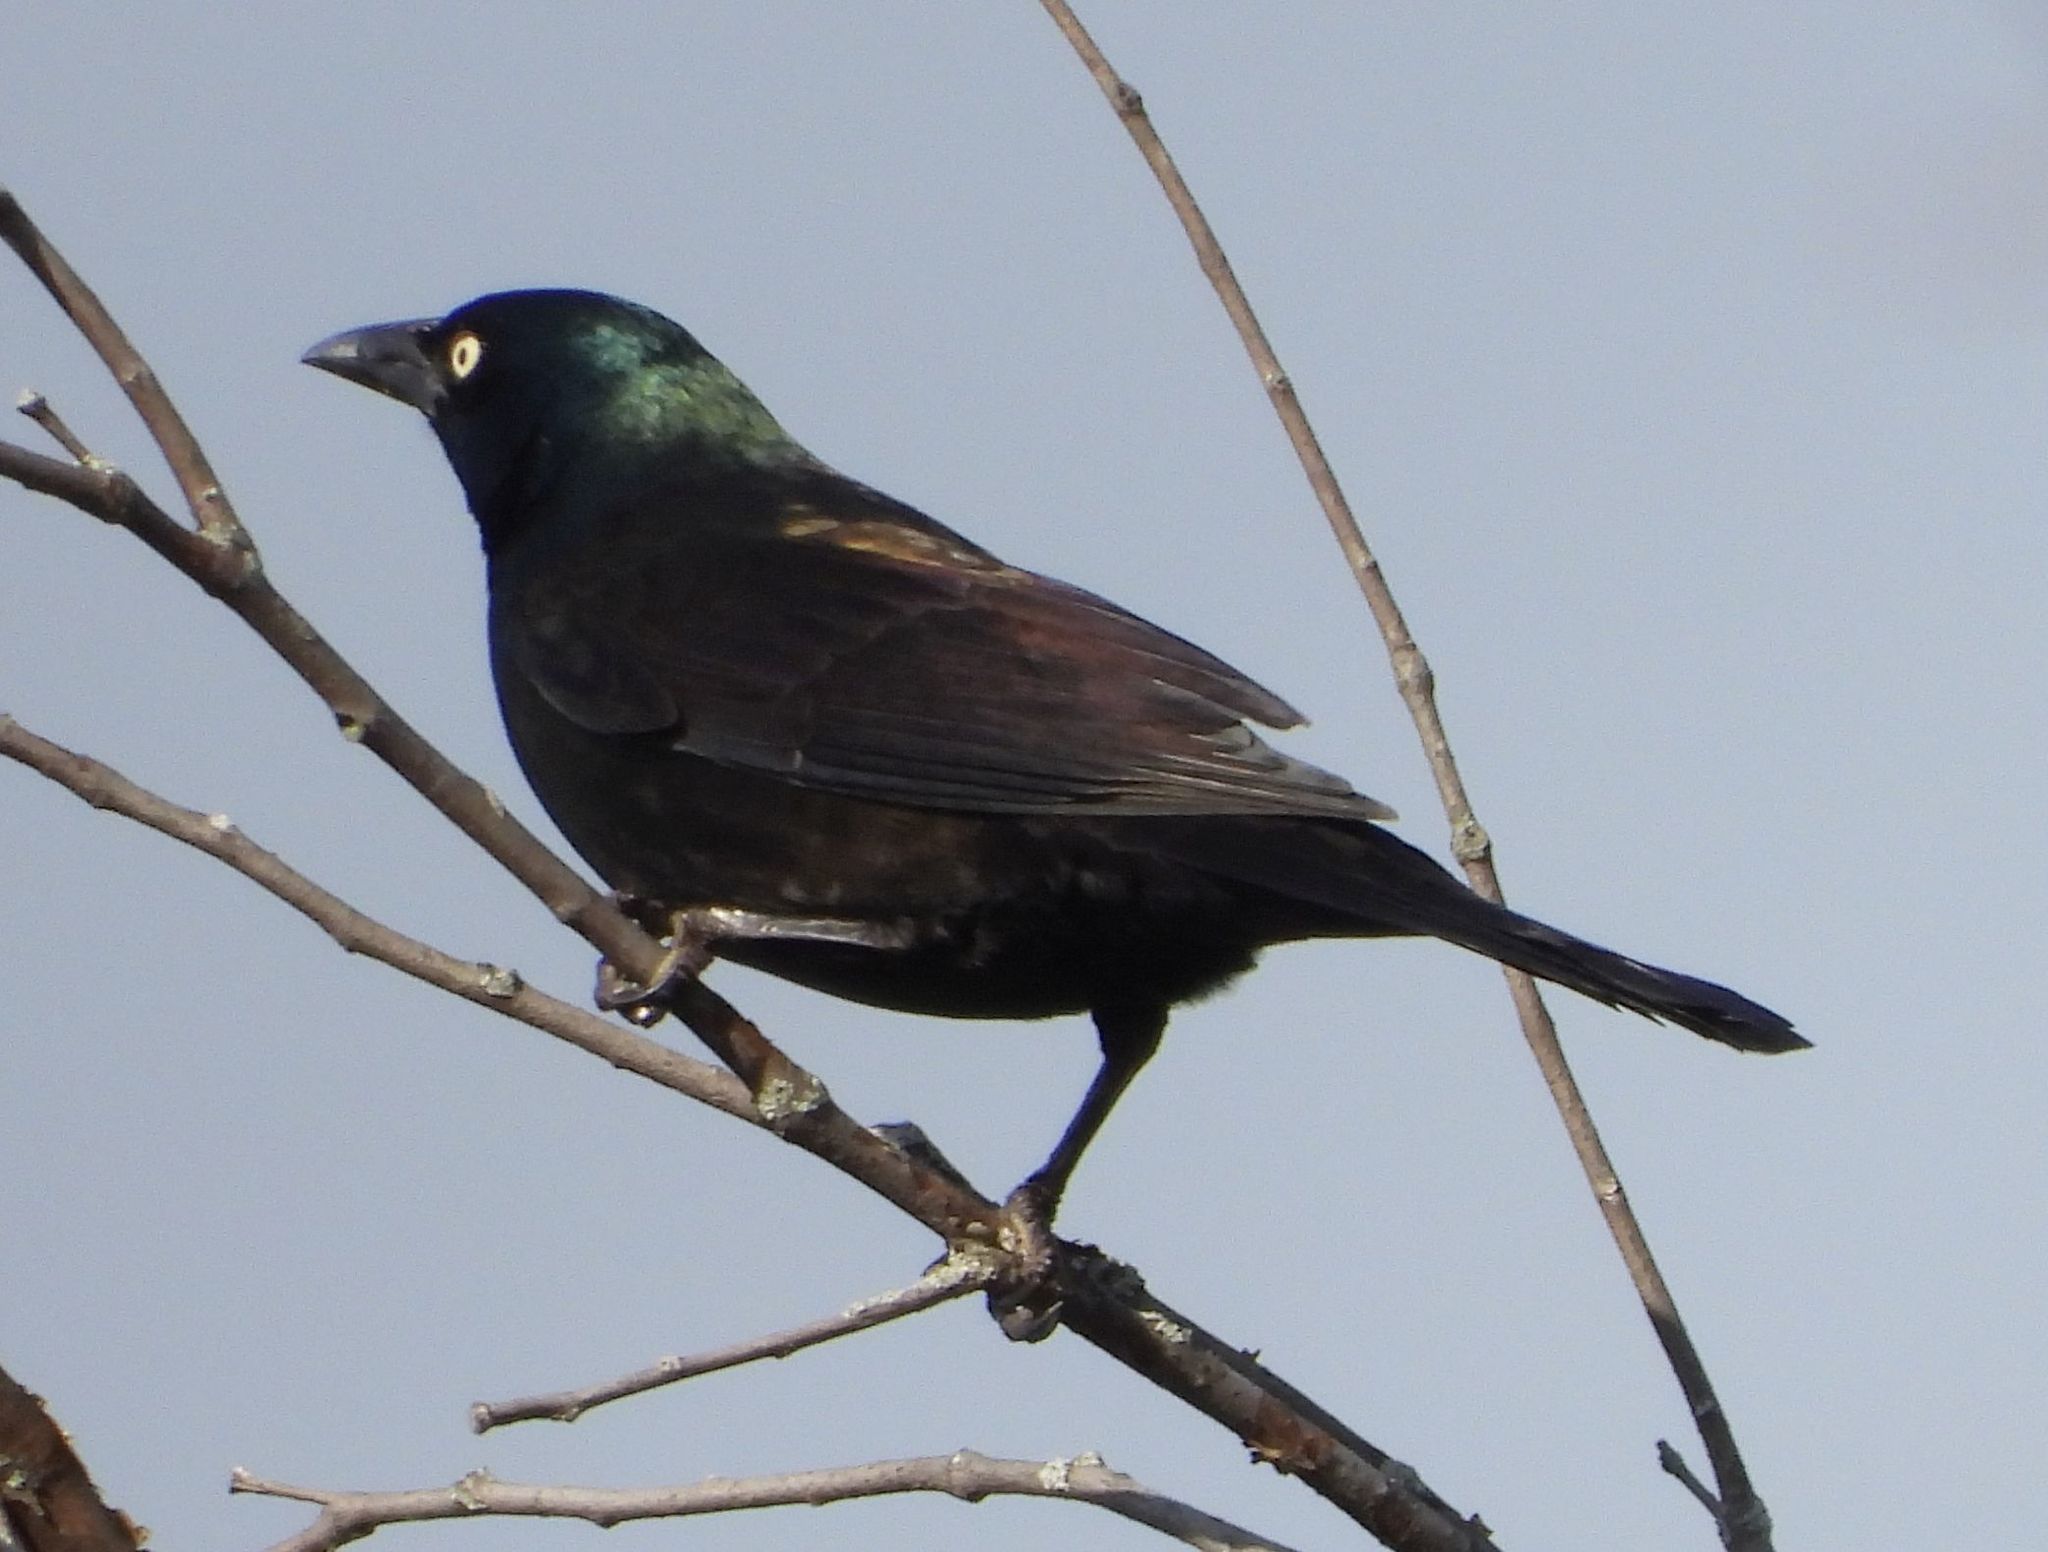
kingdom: Animalia
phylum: Chordata
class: Aves
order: Passeriformes
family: Icteridae
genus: Quiscalus
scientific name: Quiscalus quiscula
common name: Common grackle
